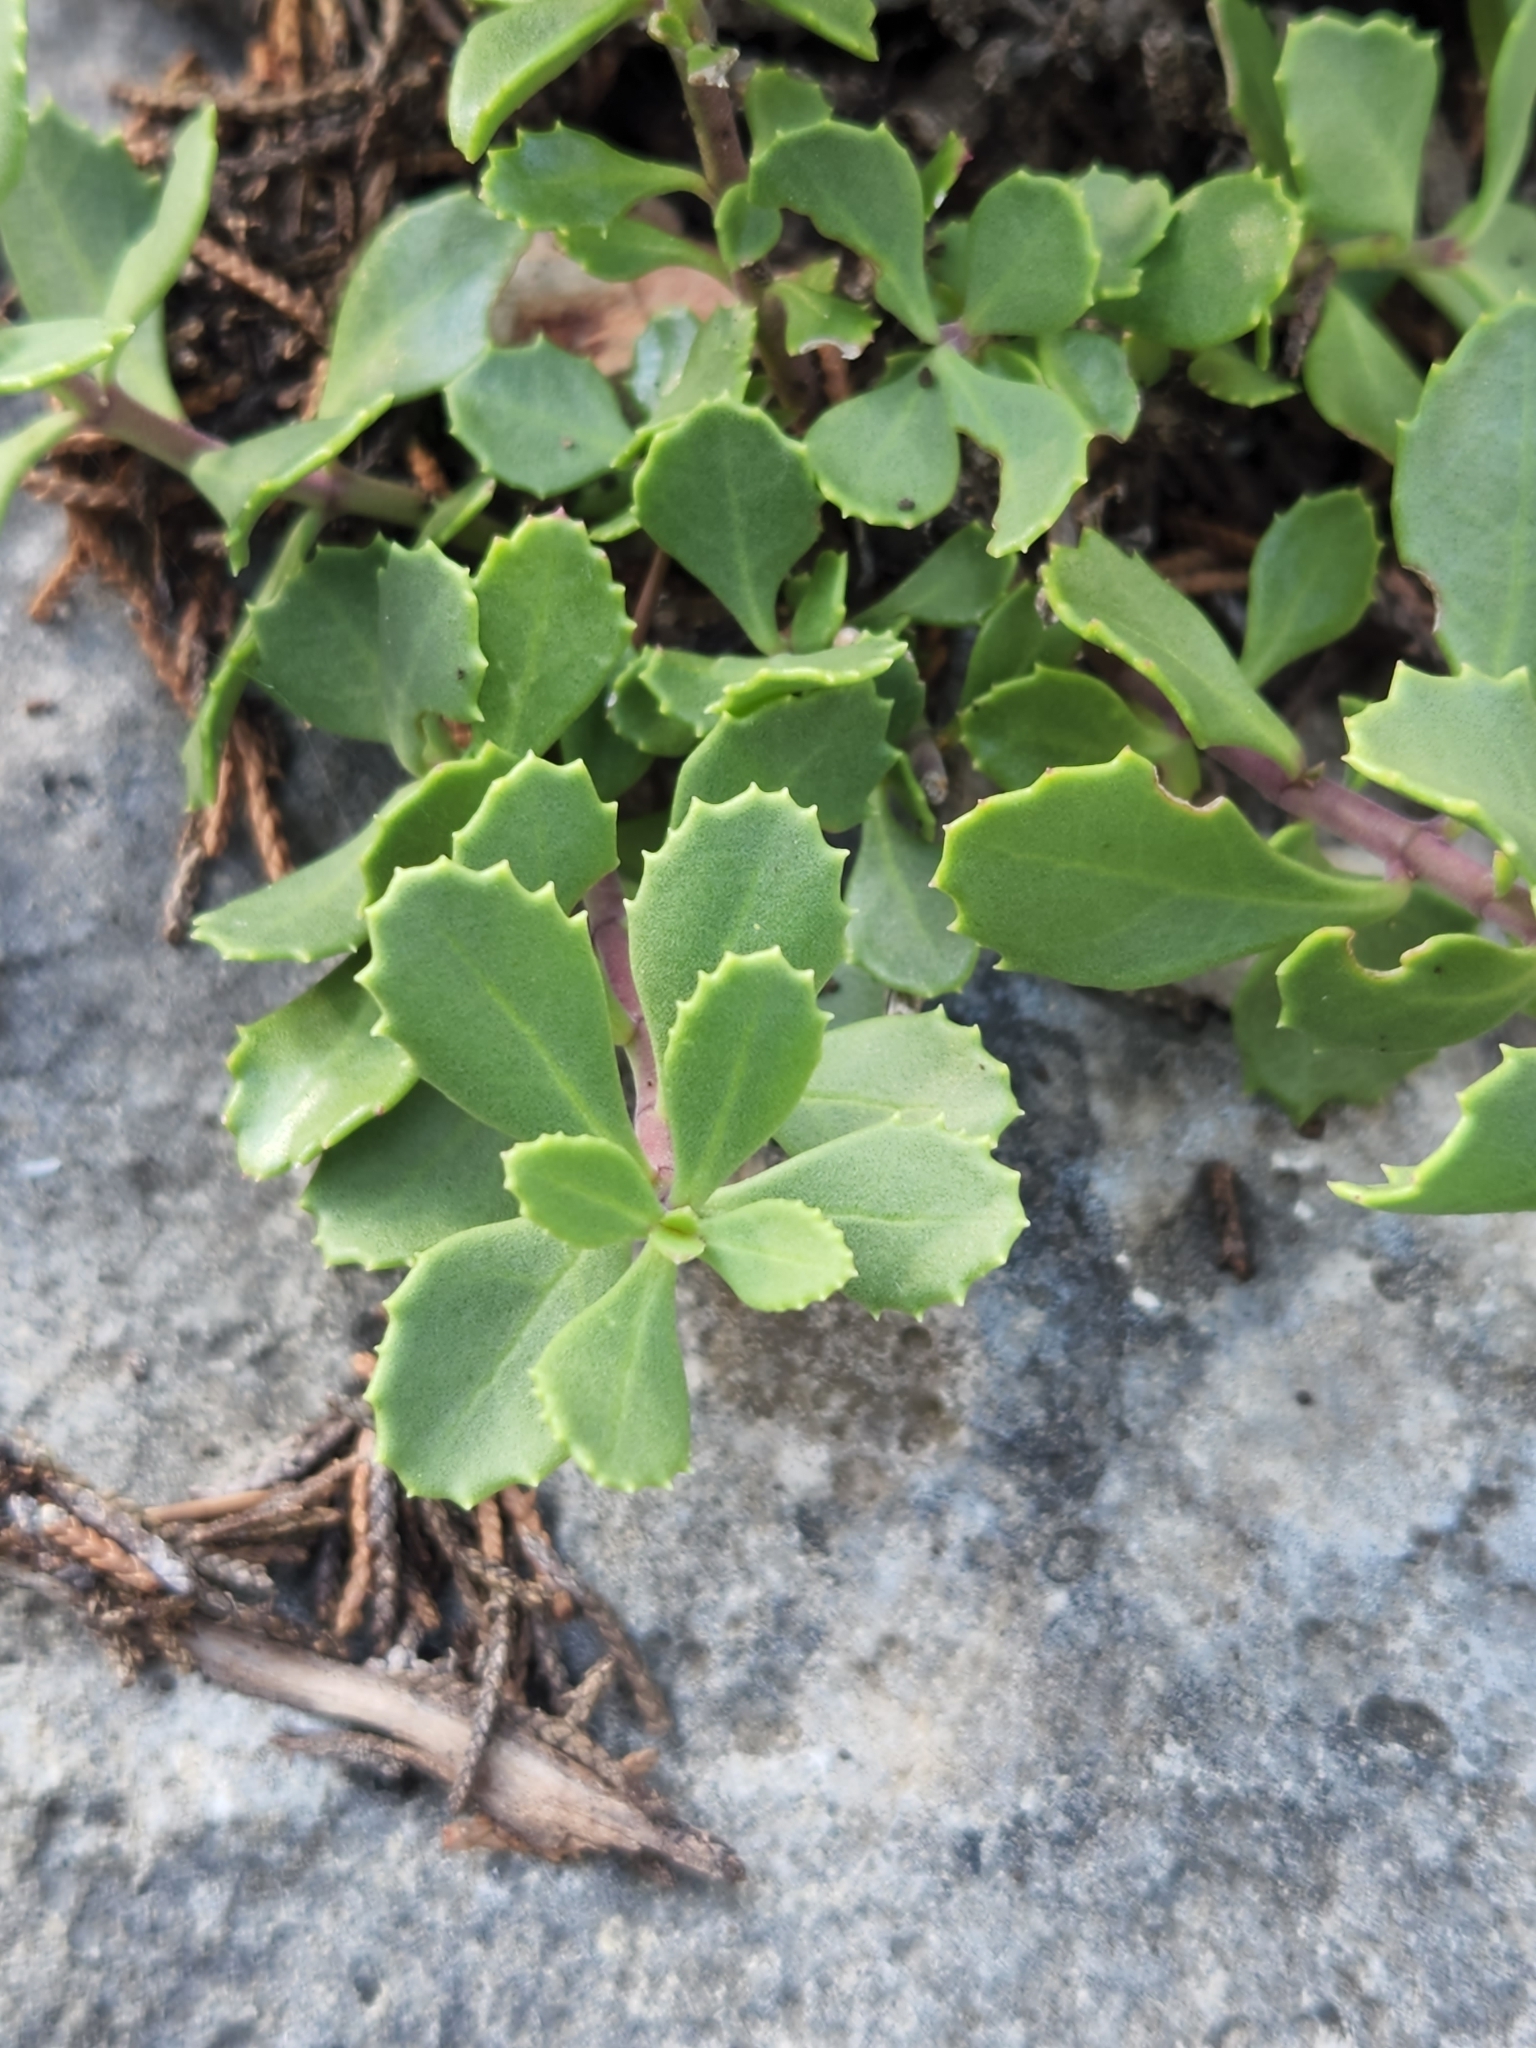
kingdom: Plantae
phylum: Tracheophyta
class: Magnoliopsida
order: Lamiales
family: Plantaginaceae
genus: Penstemon
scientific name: Penstemon baccharifolius
